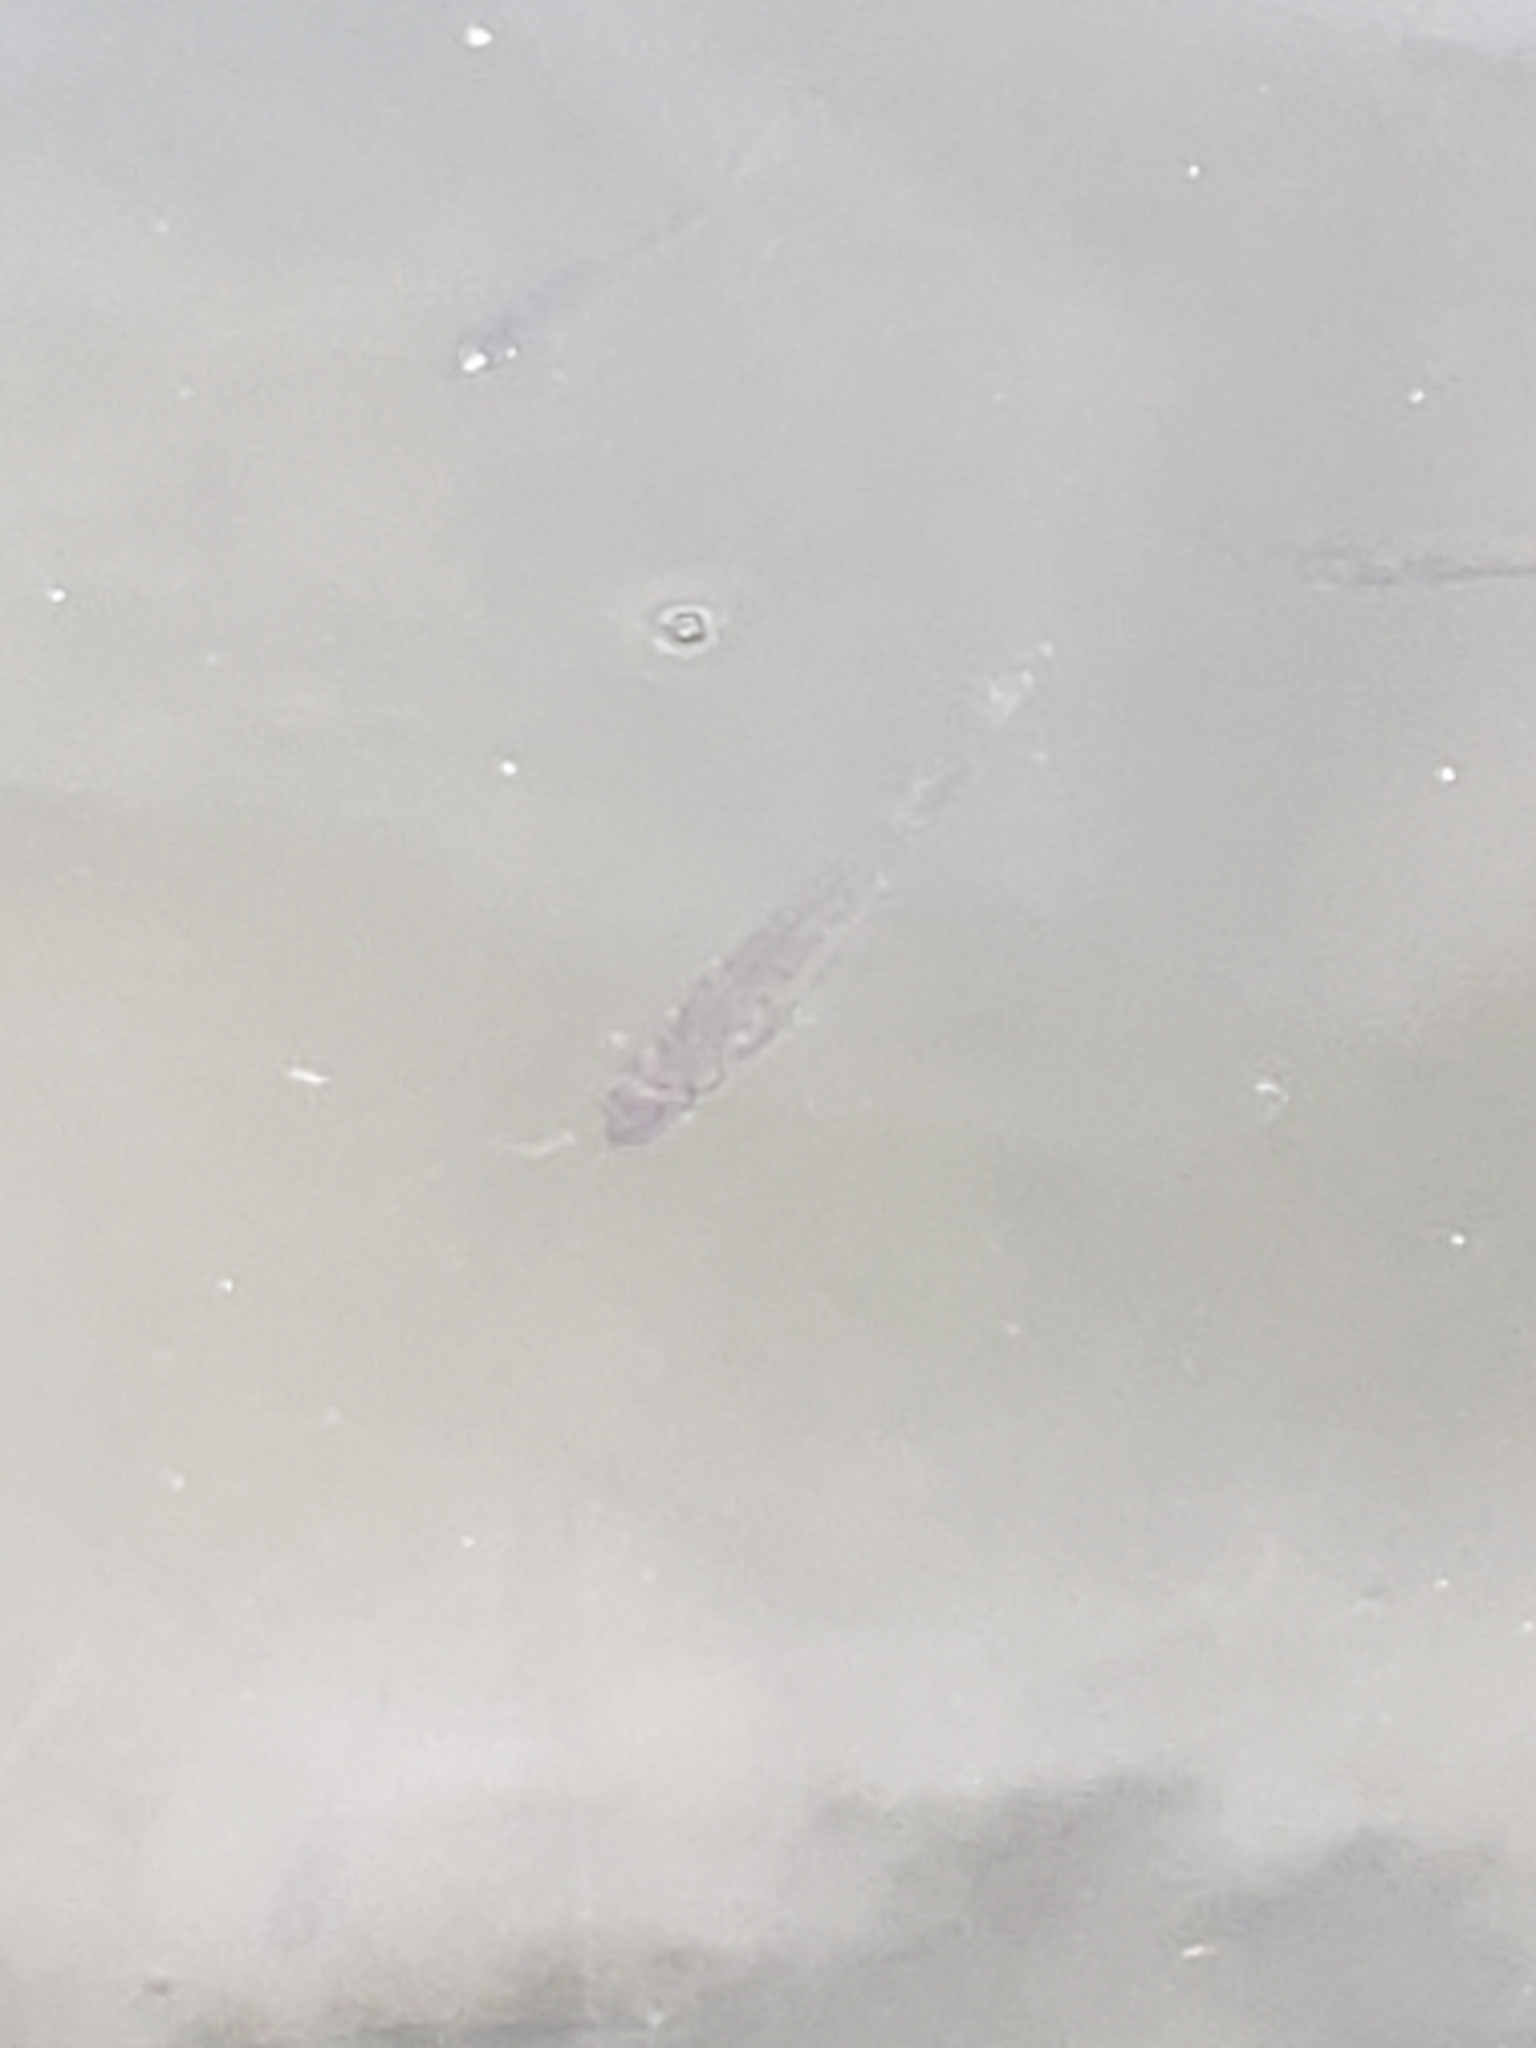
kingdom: Animalia
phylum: Chordata
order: Perciformes
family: Centrarchidae
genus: Micropterus
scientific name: Micropterus
